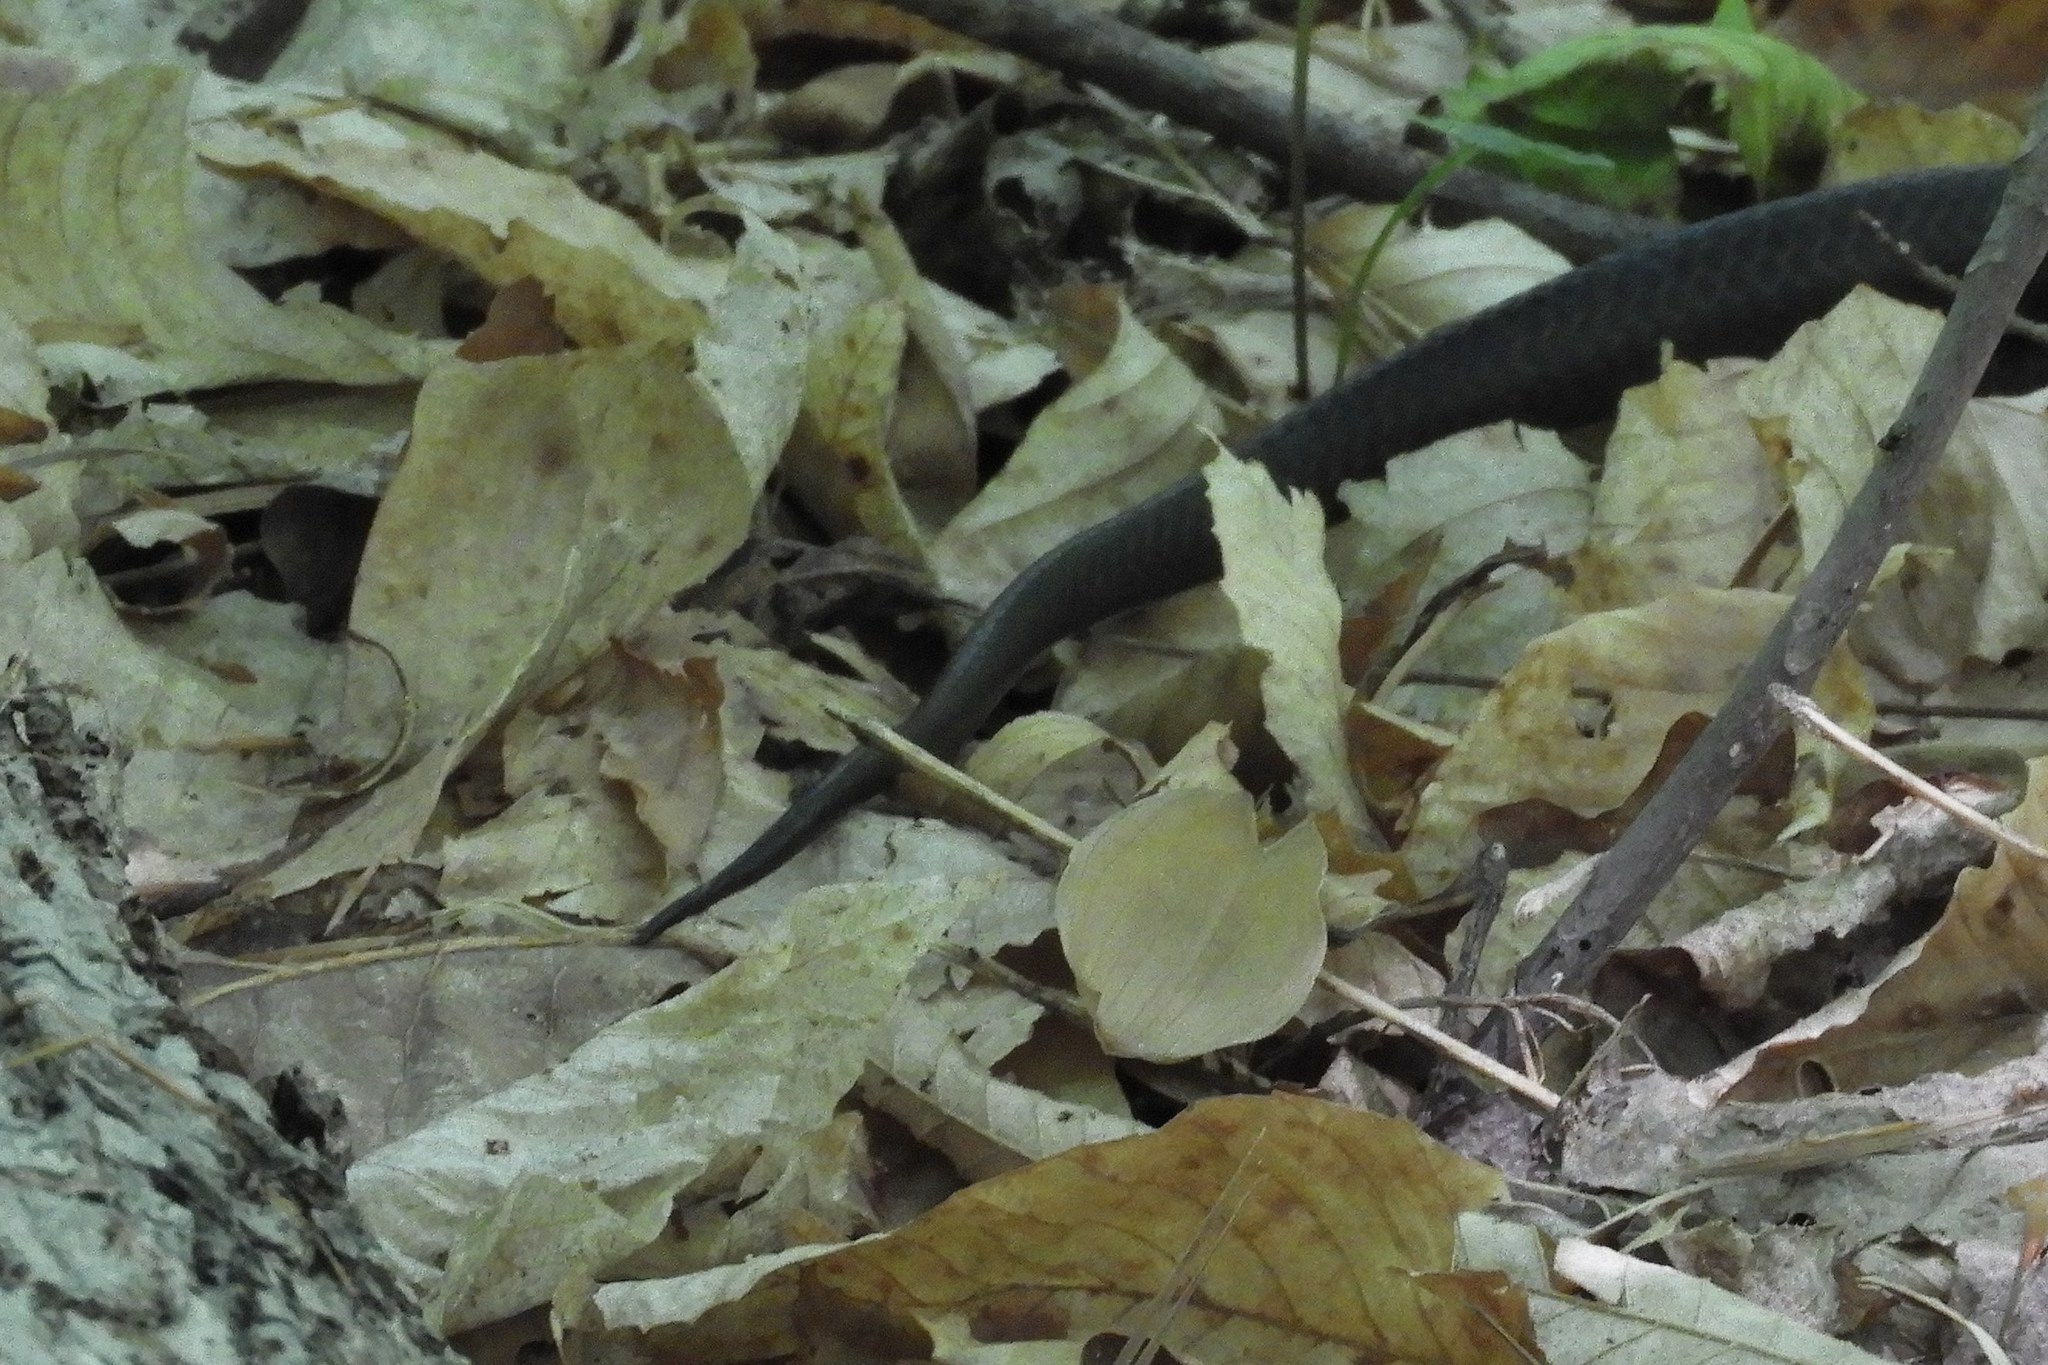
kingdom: Animalia
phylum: Chordata
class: Squamata
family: Colubridae
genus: Pantherophis
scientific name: Pantherophis alleghaniensis
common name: Eastern rat snake
